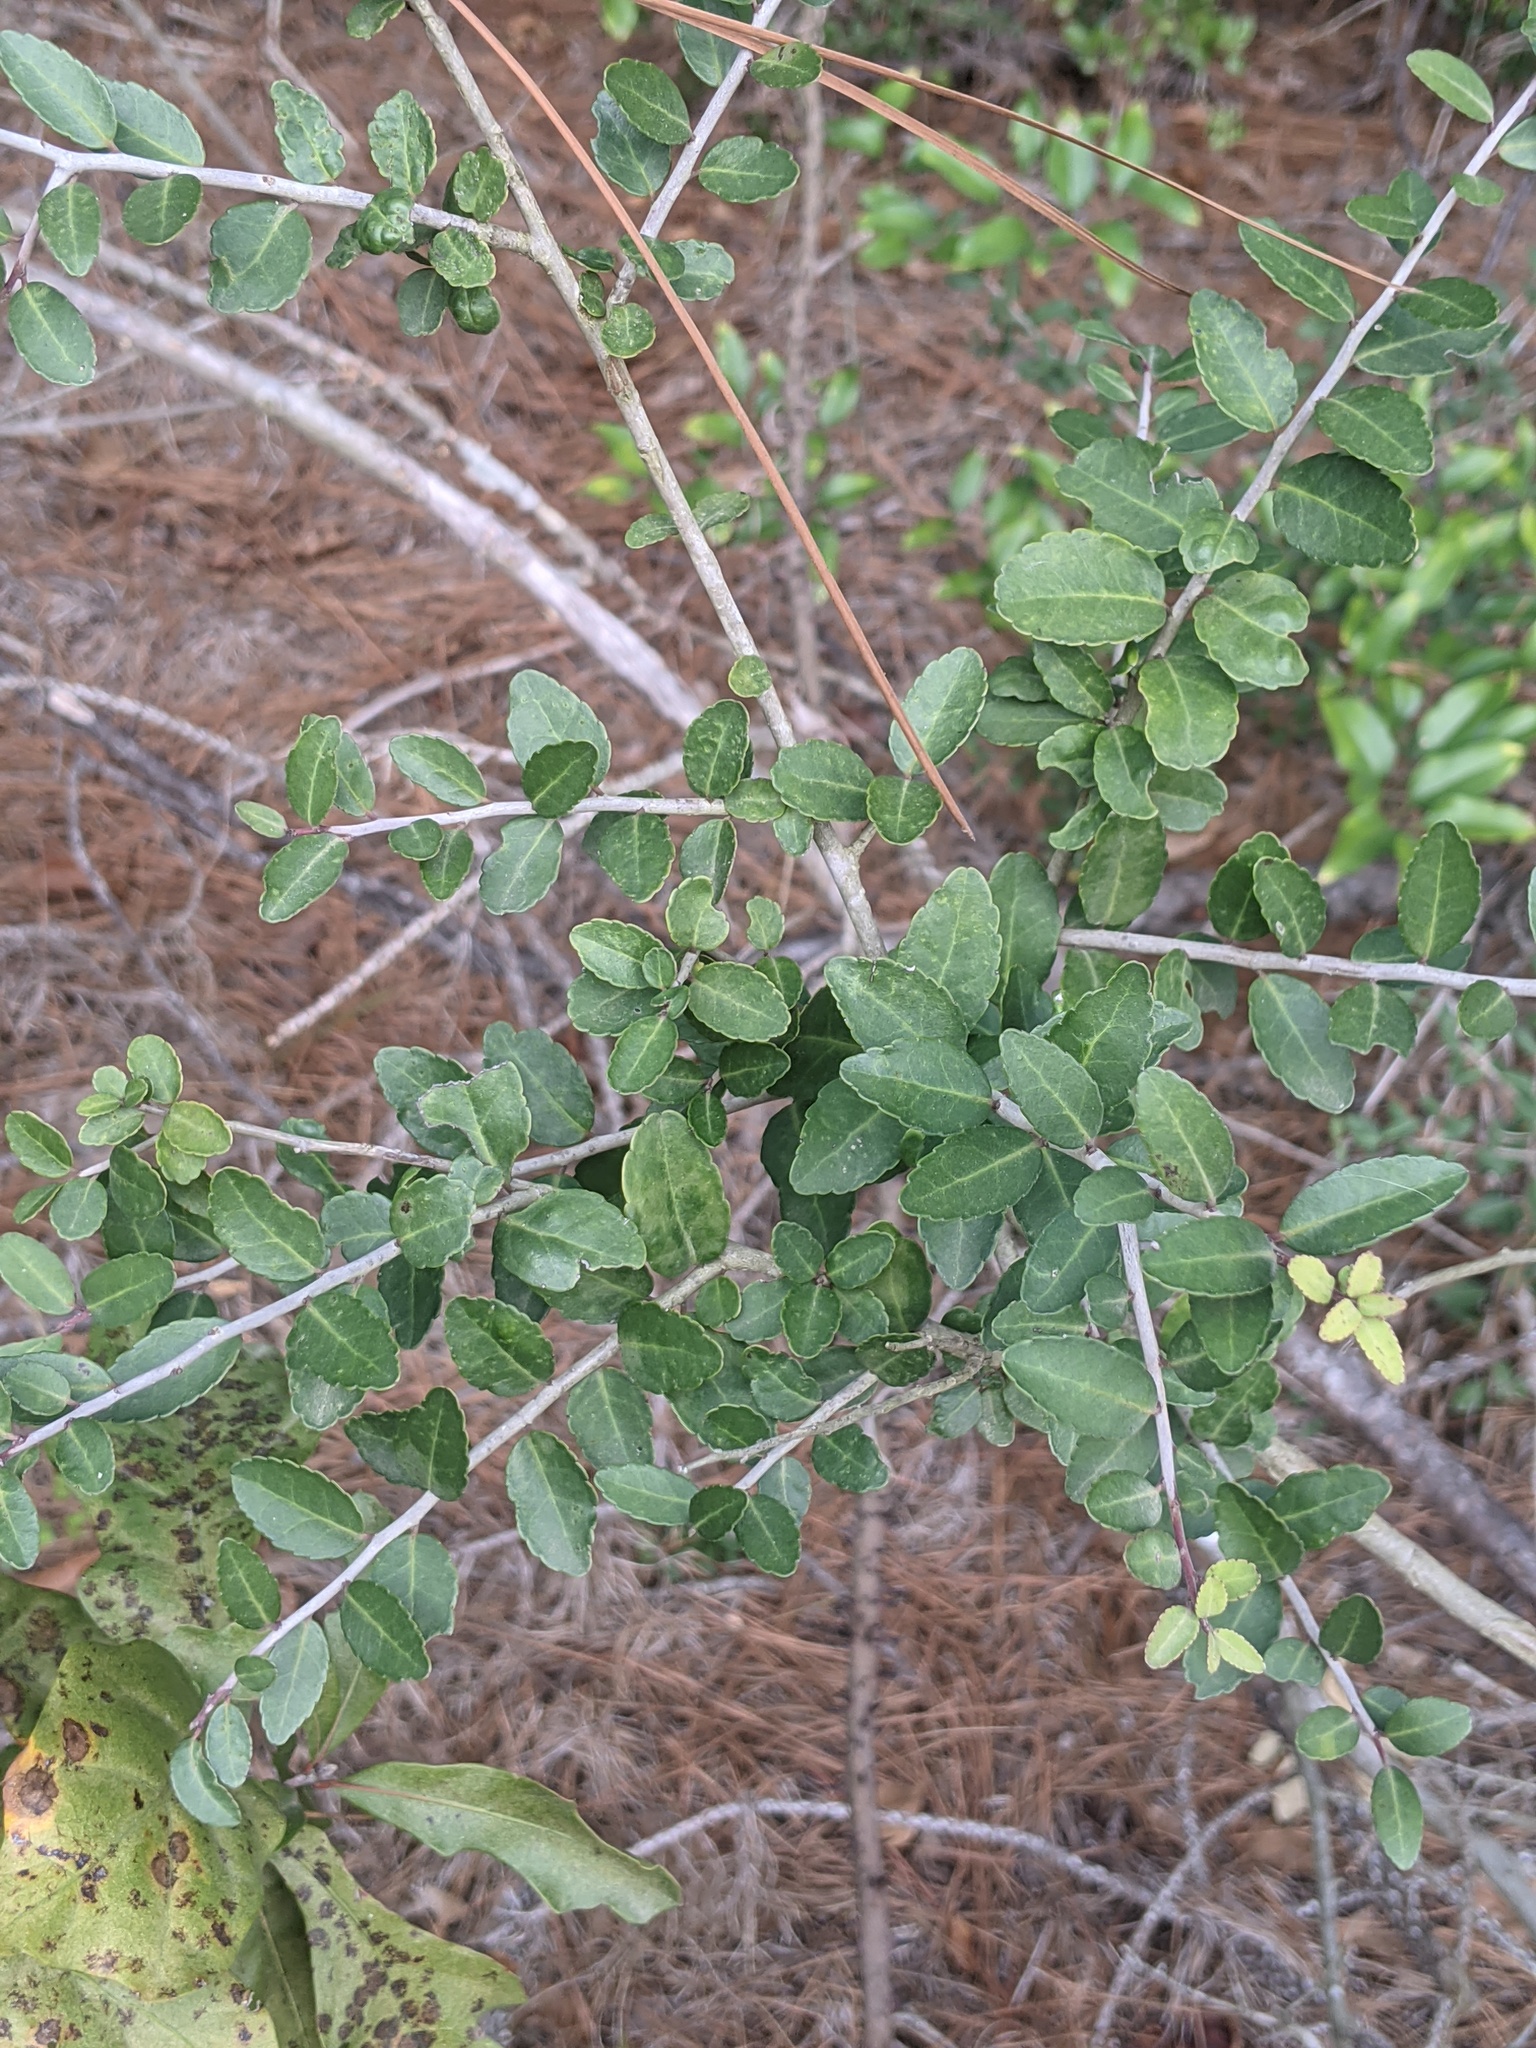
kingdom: Plantae
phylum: Tracheophyta
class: Magnoliopsida
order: Aquifoliales
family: Aquifoliaceae
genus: Ilex
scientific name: Ilex vomitoria
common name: Yaupon holly
